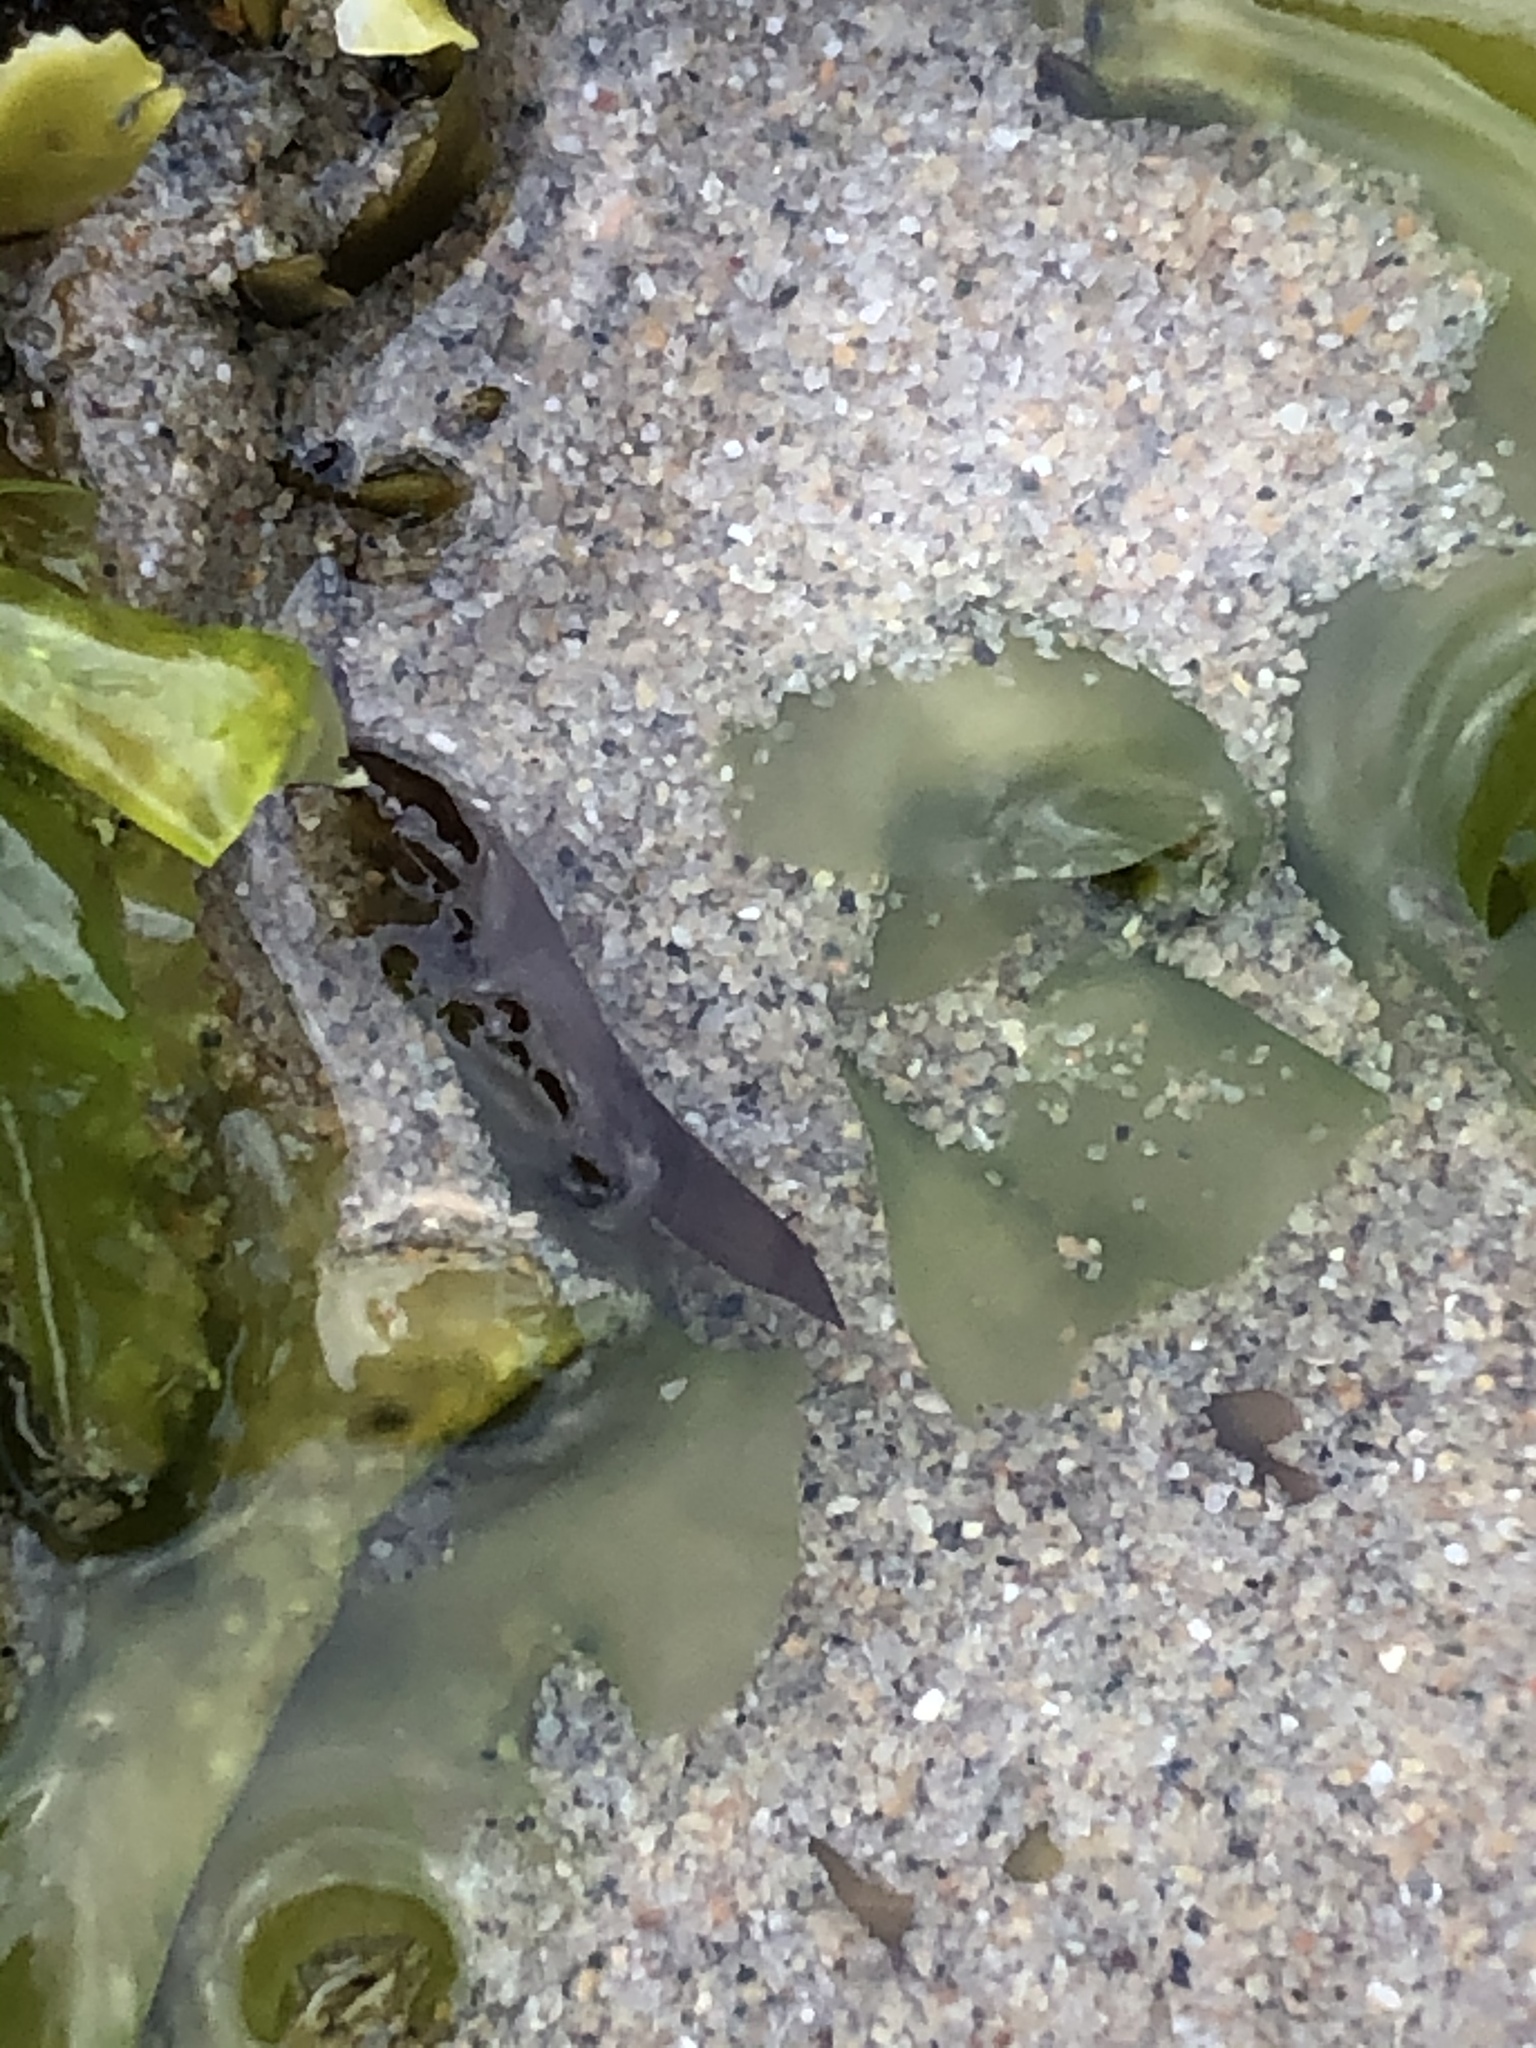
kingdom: Animalia
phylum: Arthropoda
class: Malacostraca
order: Isopoda
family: Idoteidae
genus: Idotea
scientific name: Idotea balthica
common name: Baltic isopod
